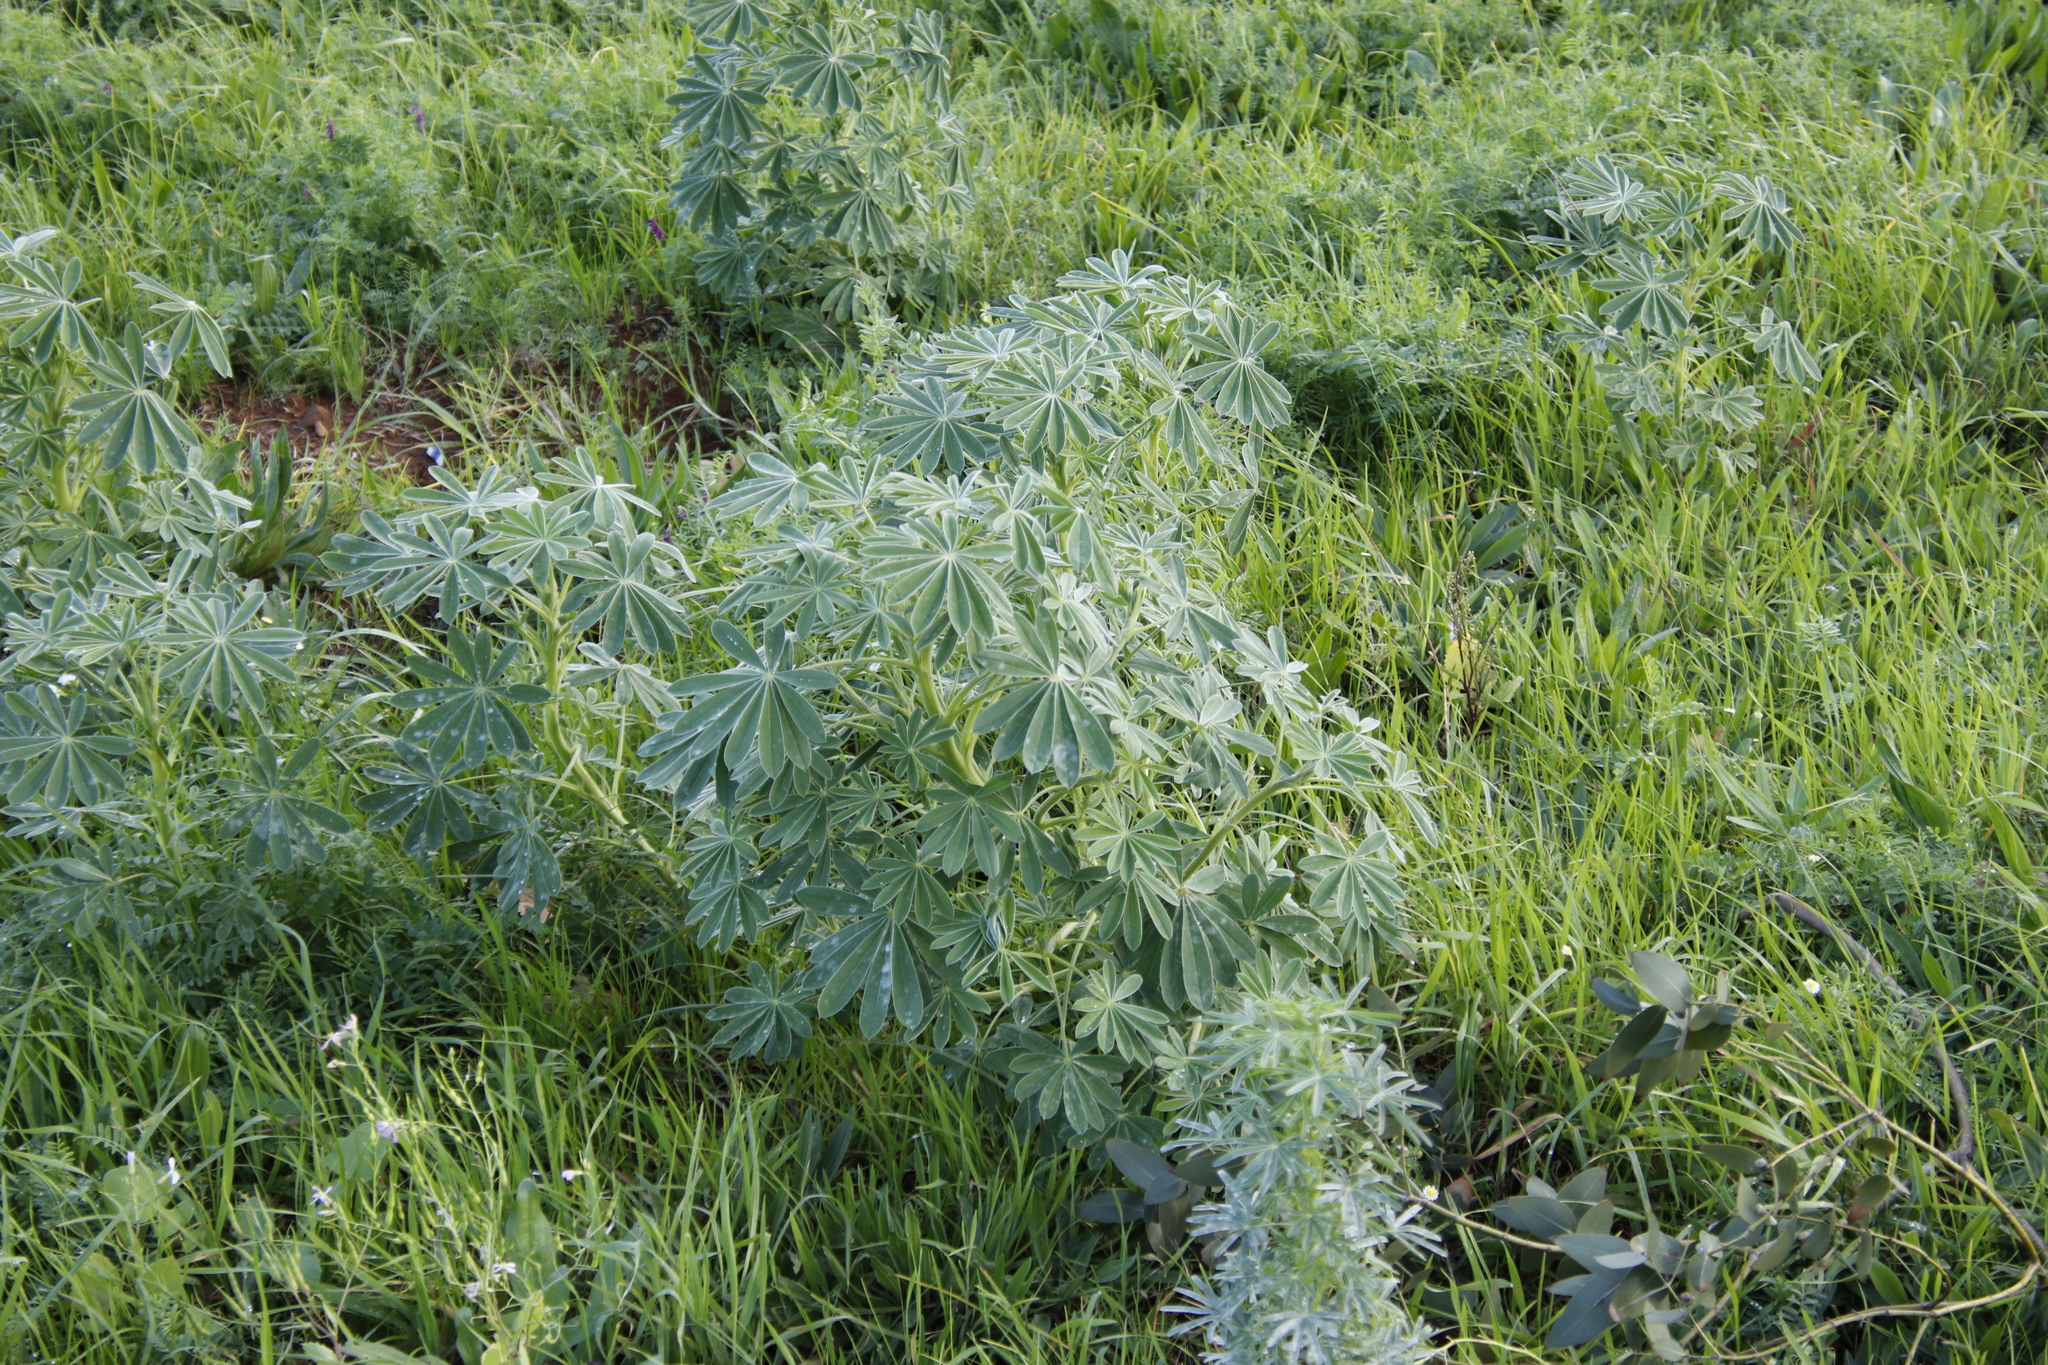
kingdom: Plantae
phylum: Tracheophyta
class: Magnoliopsida
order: Fabales
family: Fabaceae
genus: Lupinus
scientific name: Lupinus cosentinii
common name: Hairy blue lupin
